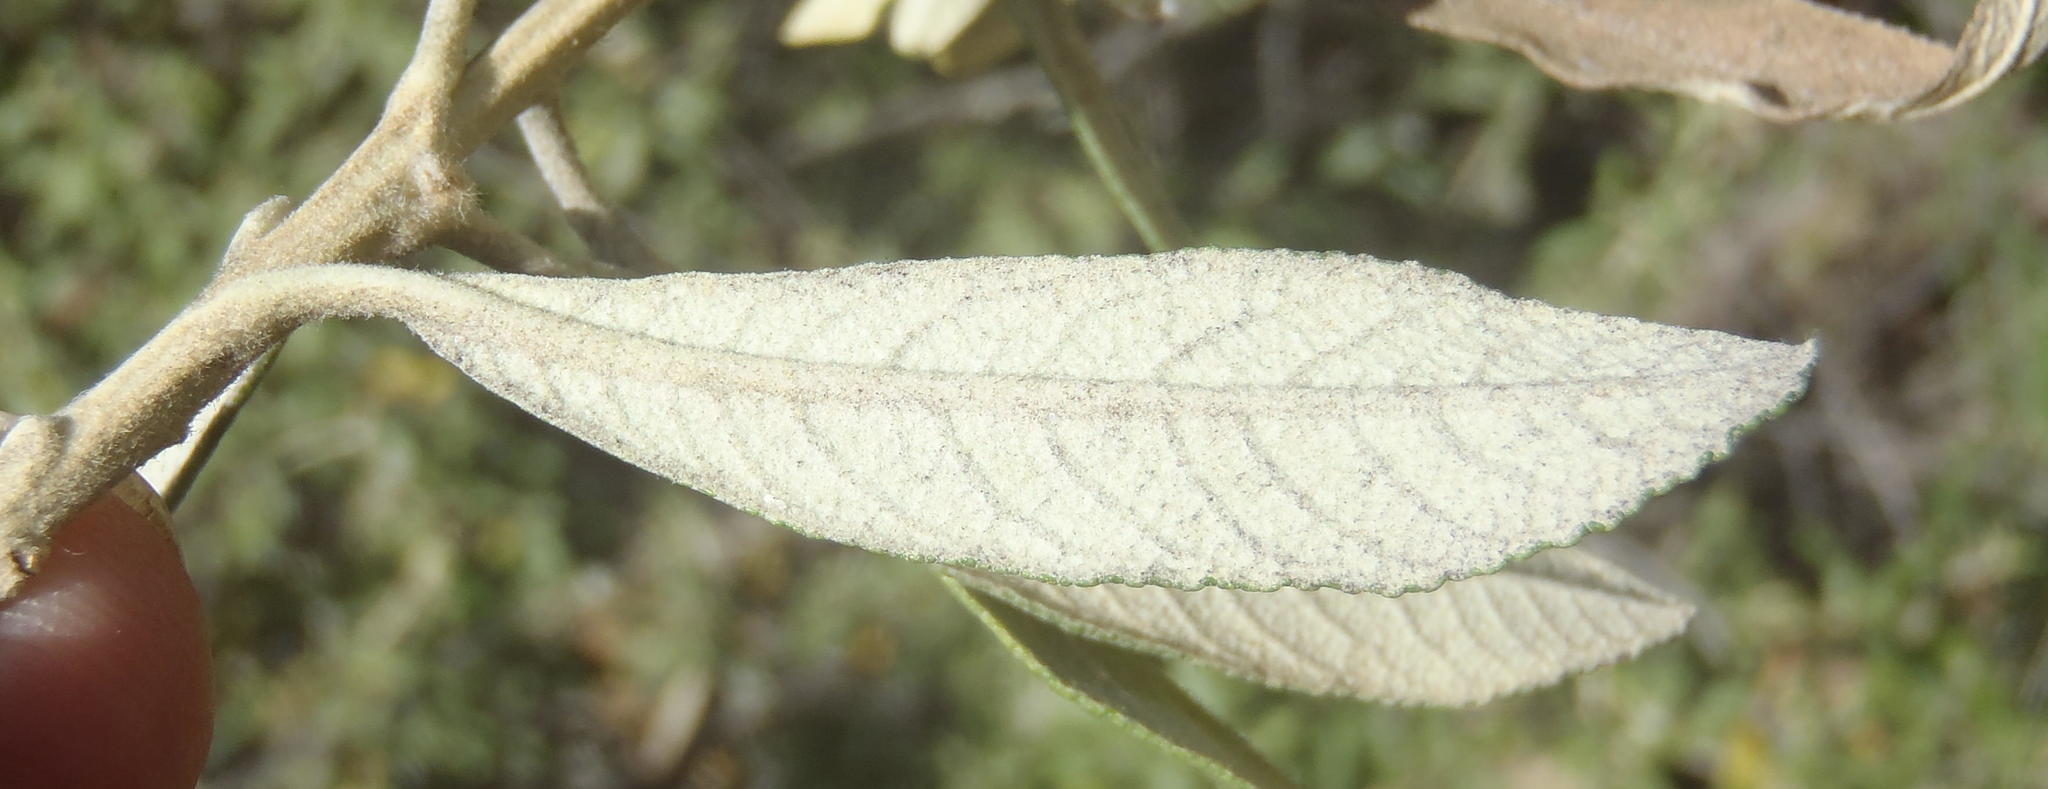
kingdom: Plantae
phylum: Tracheophyta
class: Magnoliopsida
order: Asterales
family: Asteraceae
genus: Tarchonanthus
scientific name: Tarchonanthus littoralis
